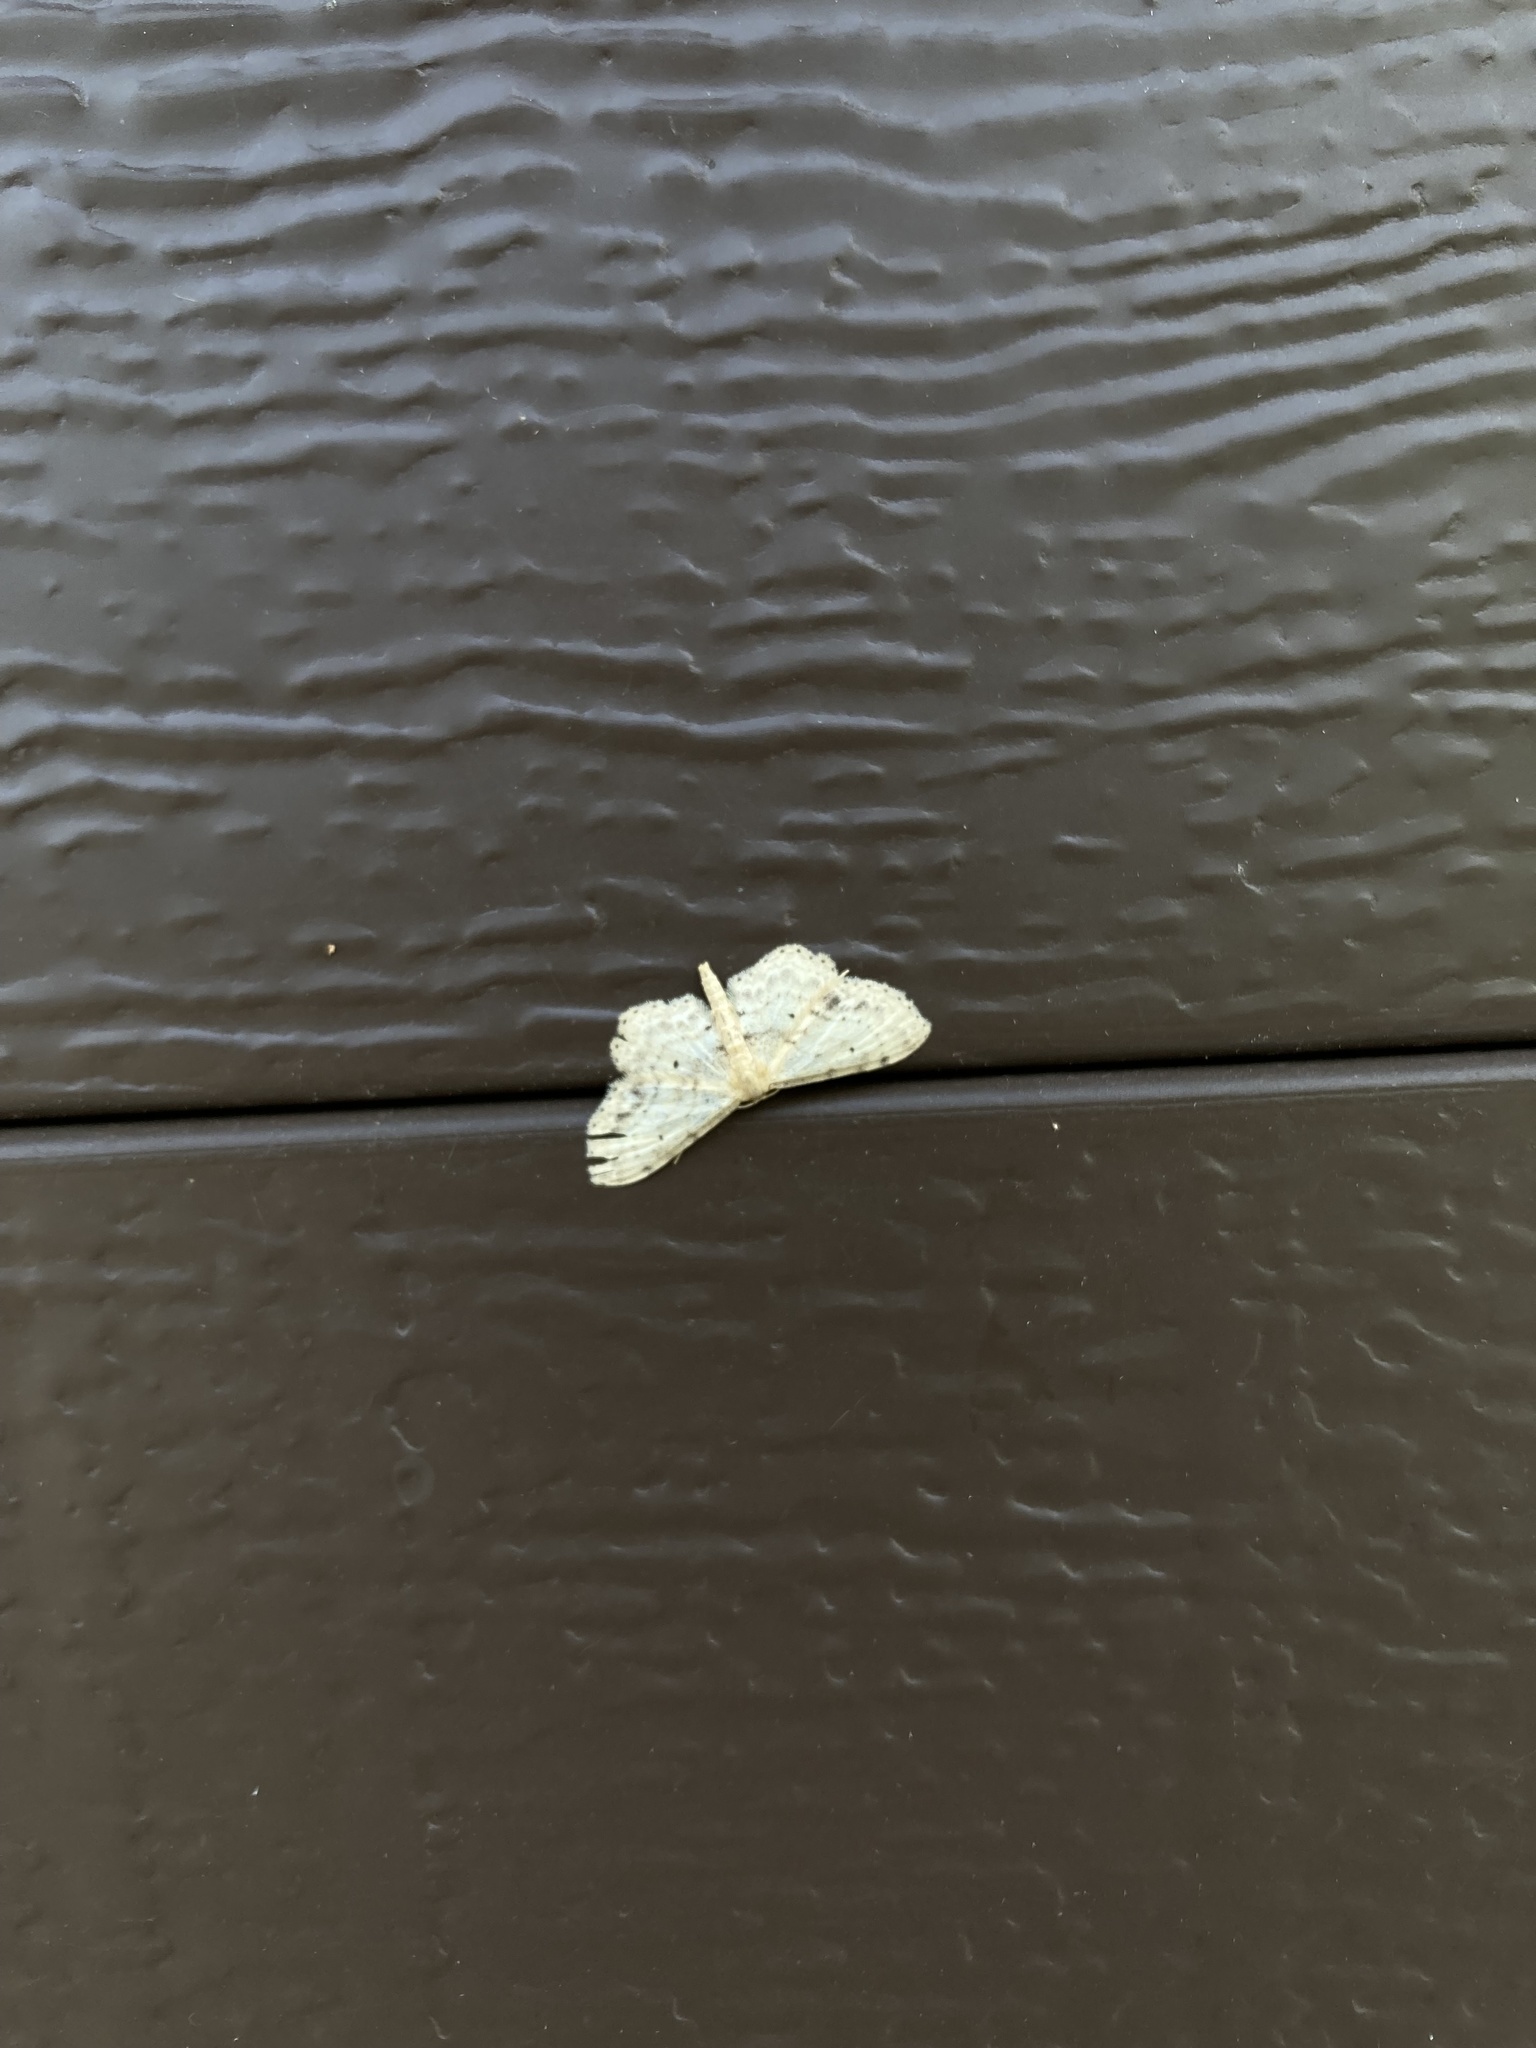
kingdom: Animalia
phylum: Arthropoda
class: Insecta
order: Lepidoptera
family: Geometridae
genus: Idaea
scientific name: Idaea dimidiata
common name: Single-dotted wave
